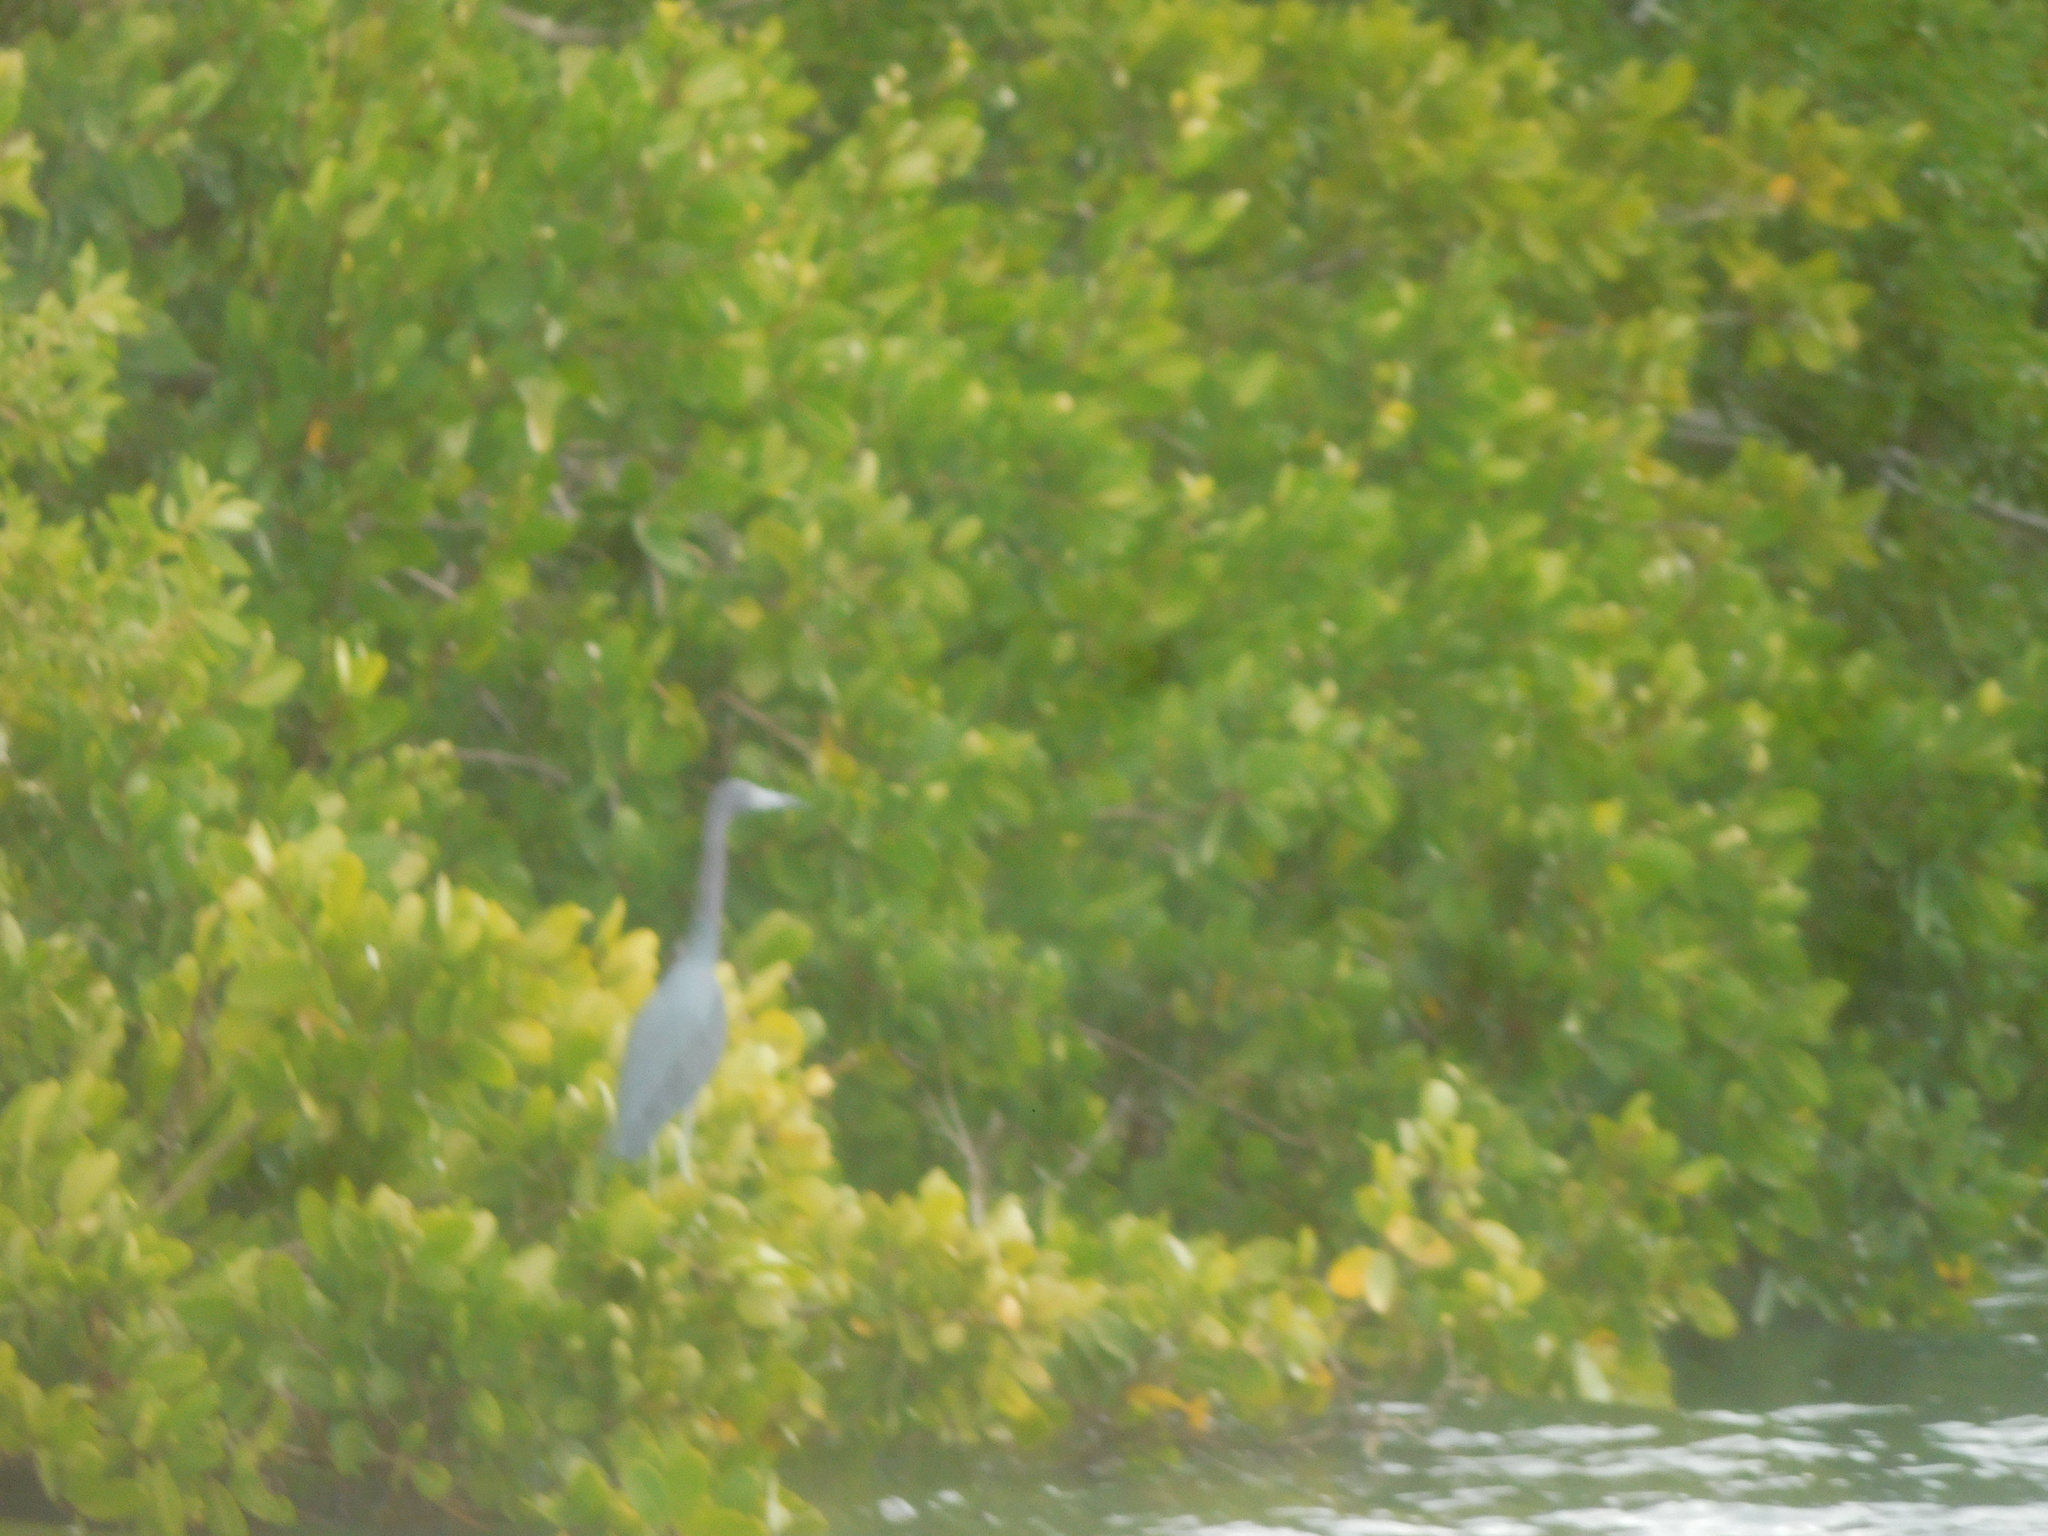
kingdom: Animalia
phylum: Chordata
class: Aves
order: Pelecaniformes
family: Ardeidae
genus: Egretta
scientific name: Egretta caerulea
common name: Little blue heron
